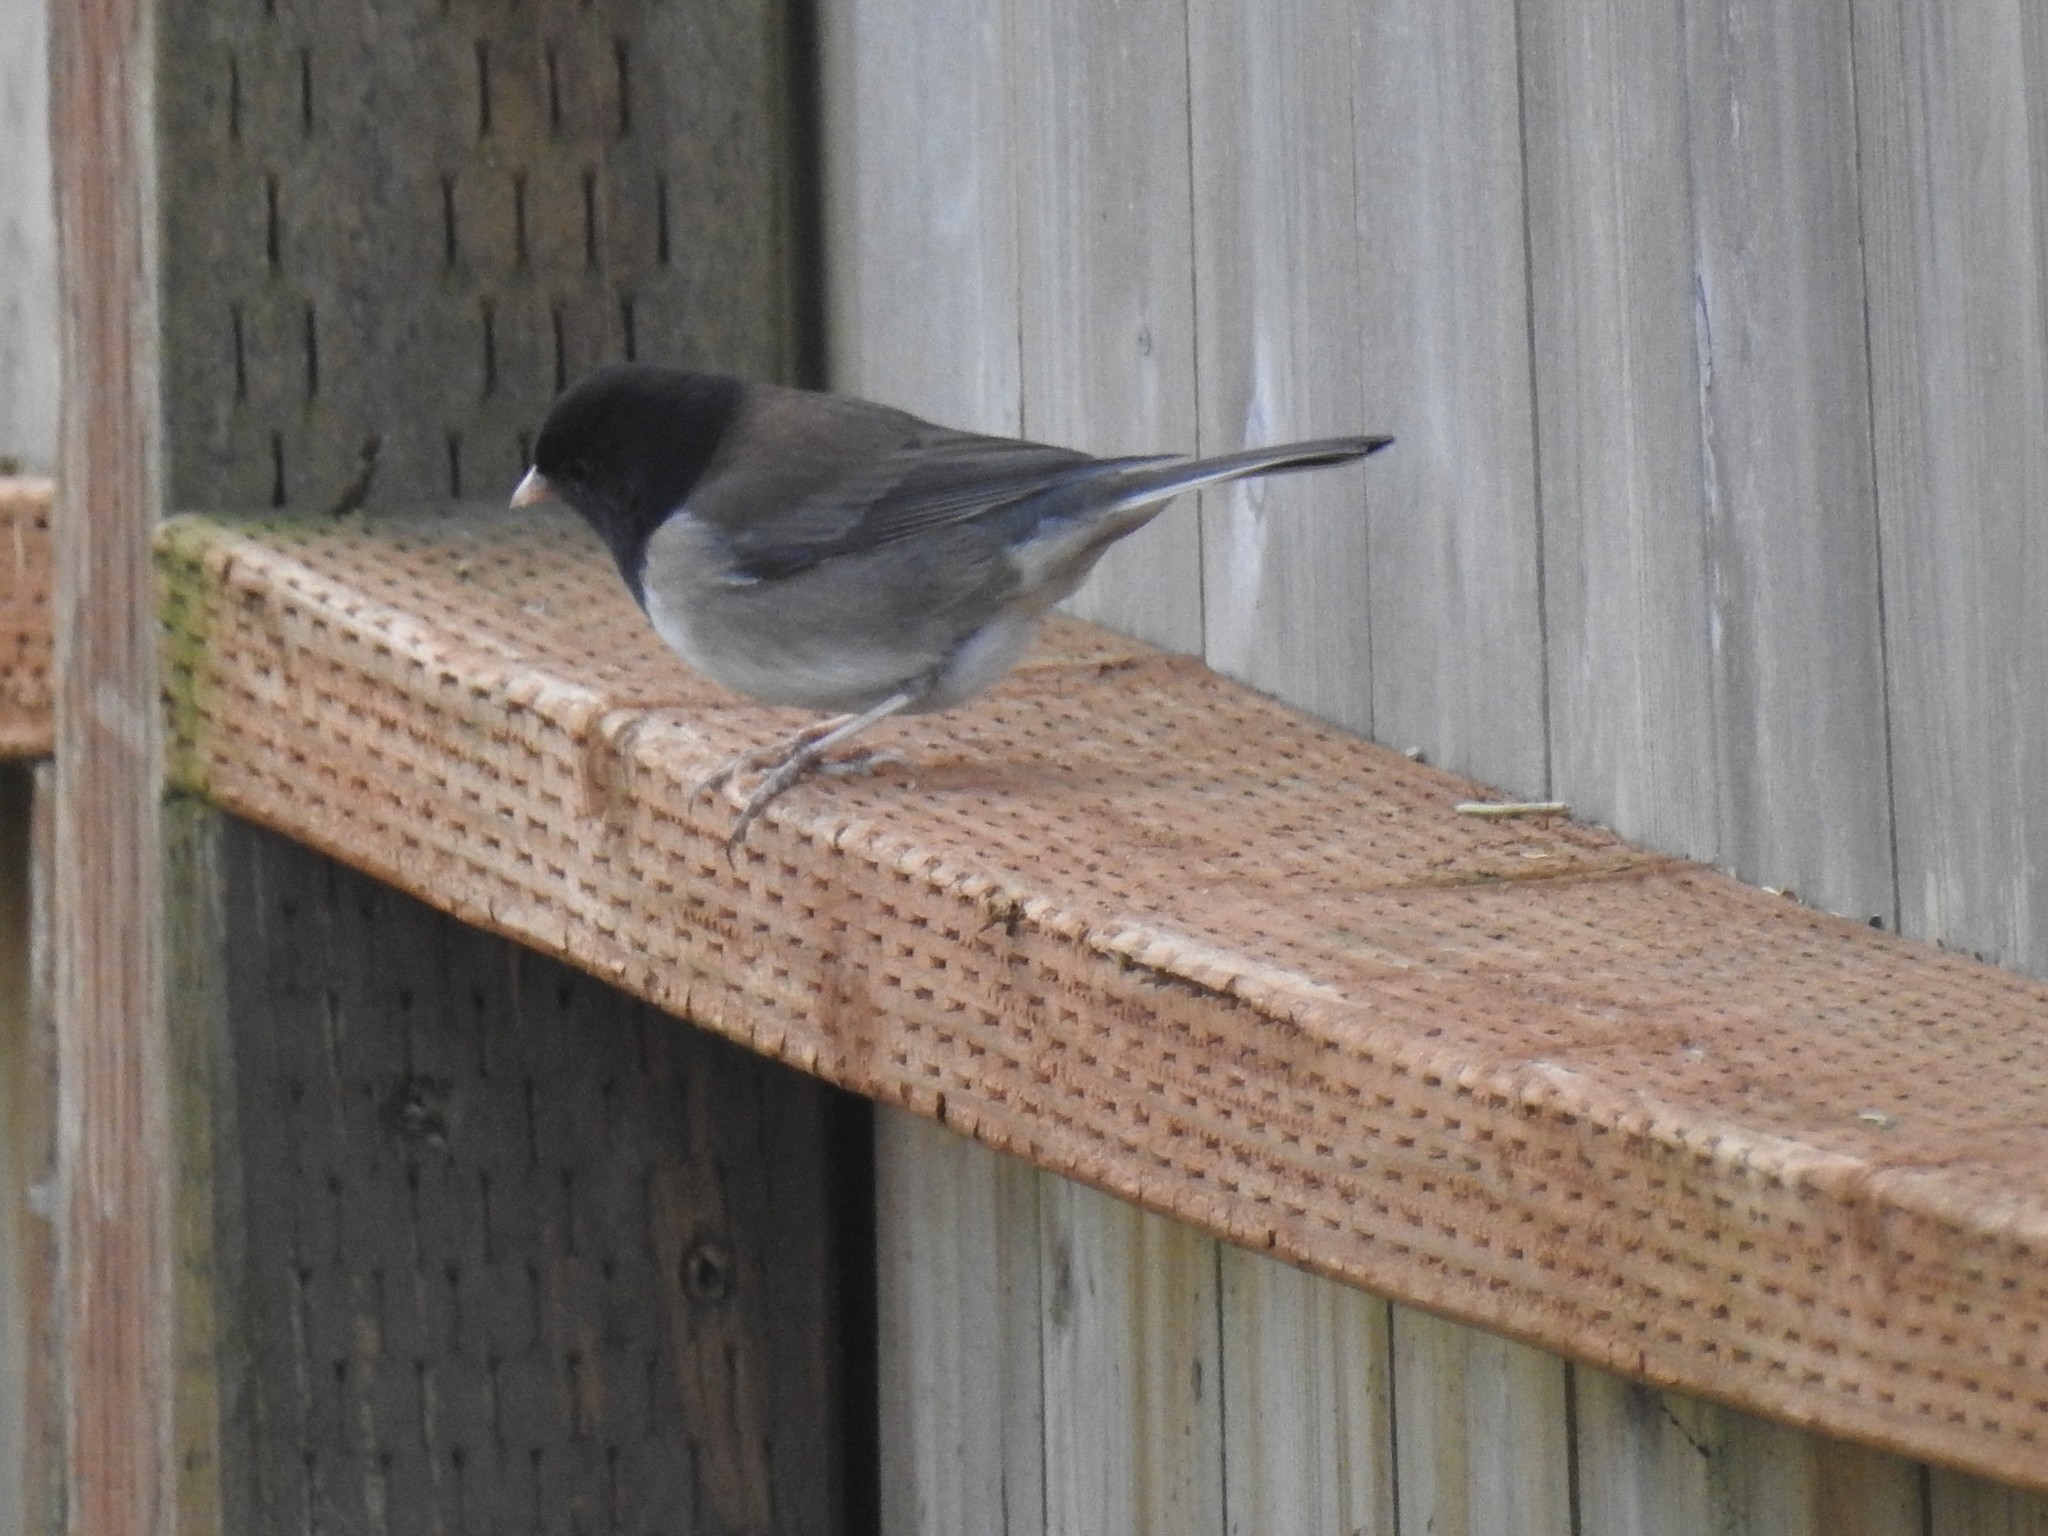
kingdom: Animalia
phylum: Chordata
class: Aves
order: Passeriformes
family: Passerellidae
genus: Junco
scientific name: Junco hyemalis
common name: Dark-eyed junco
